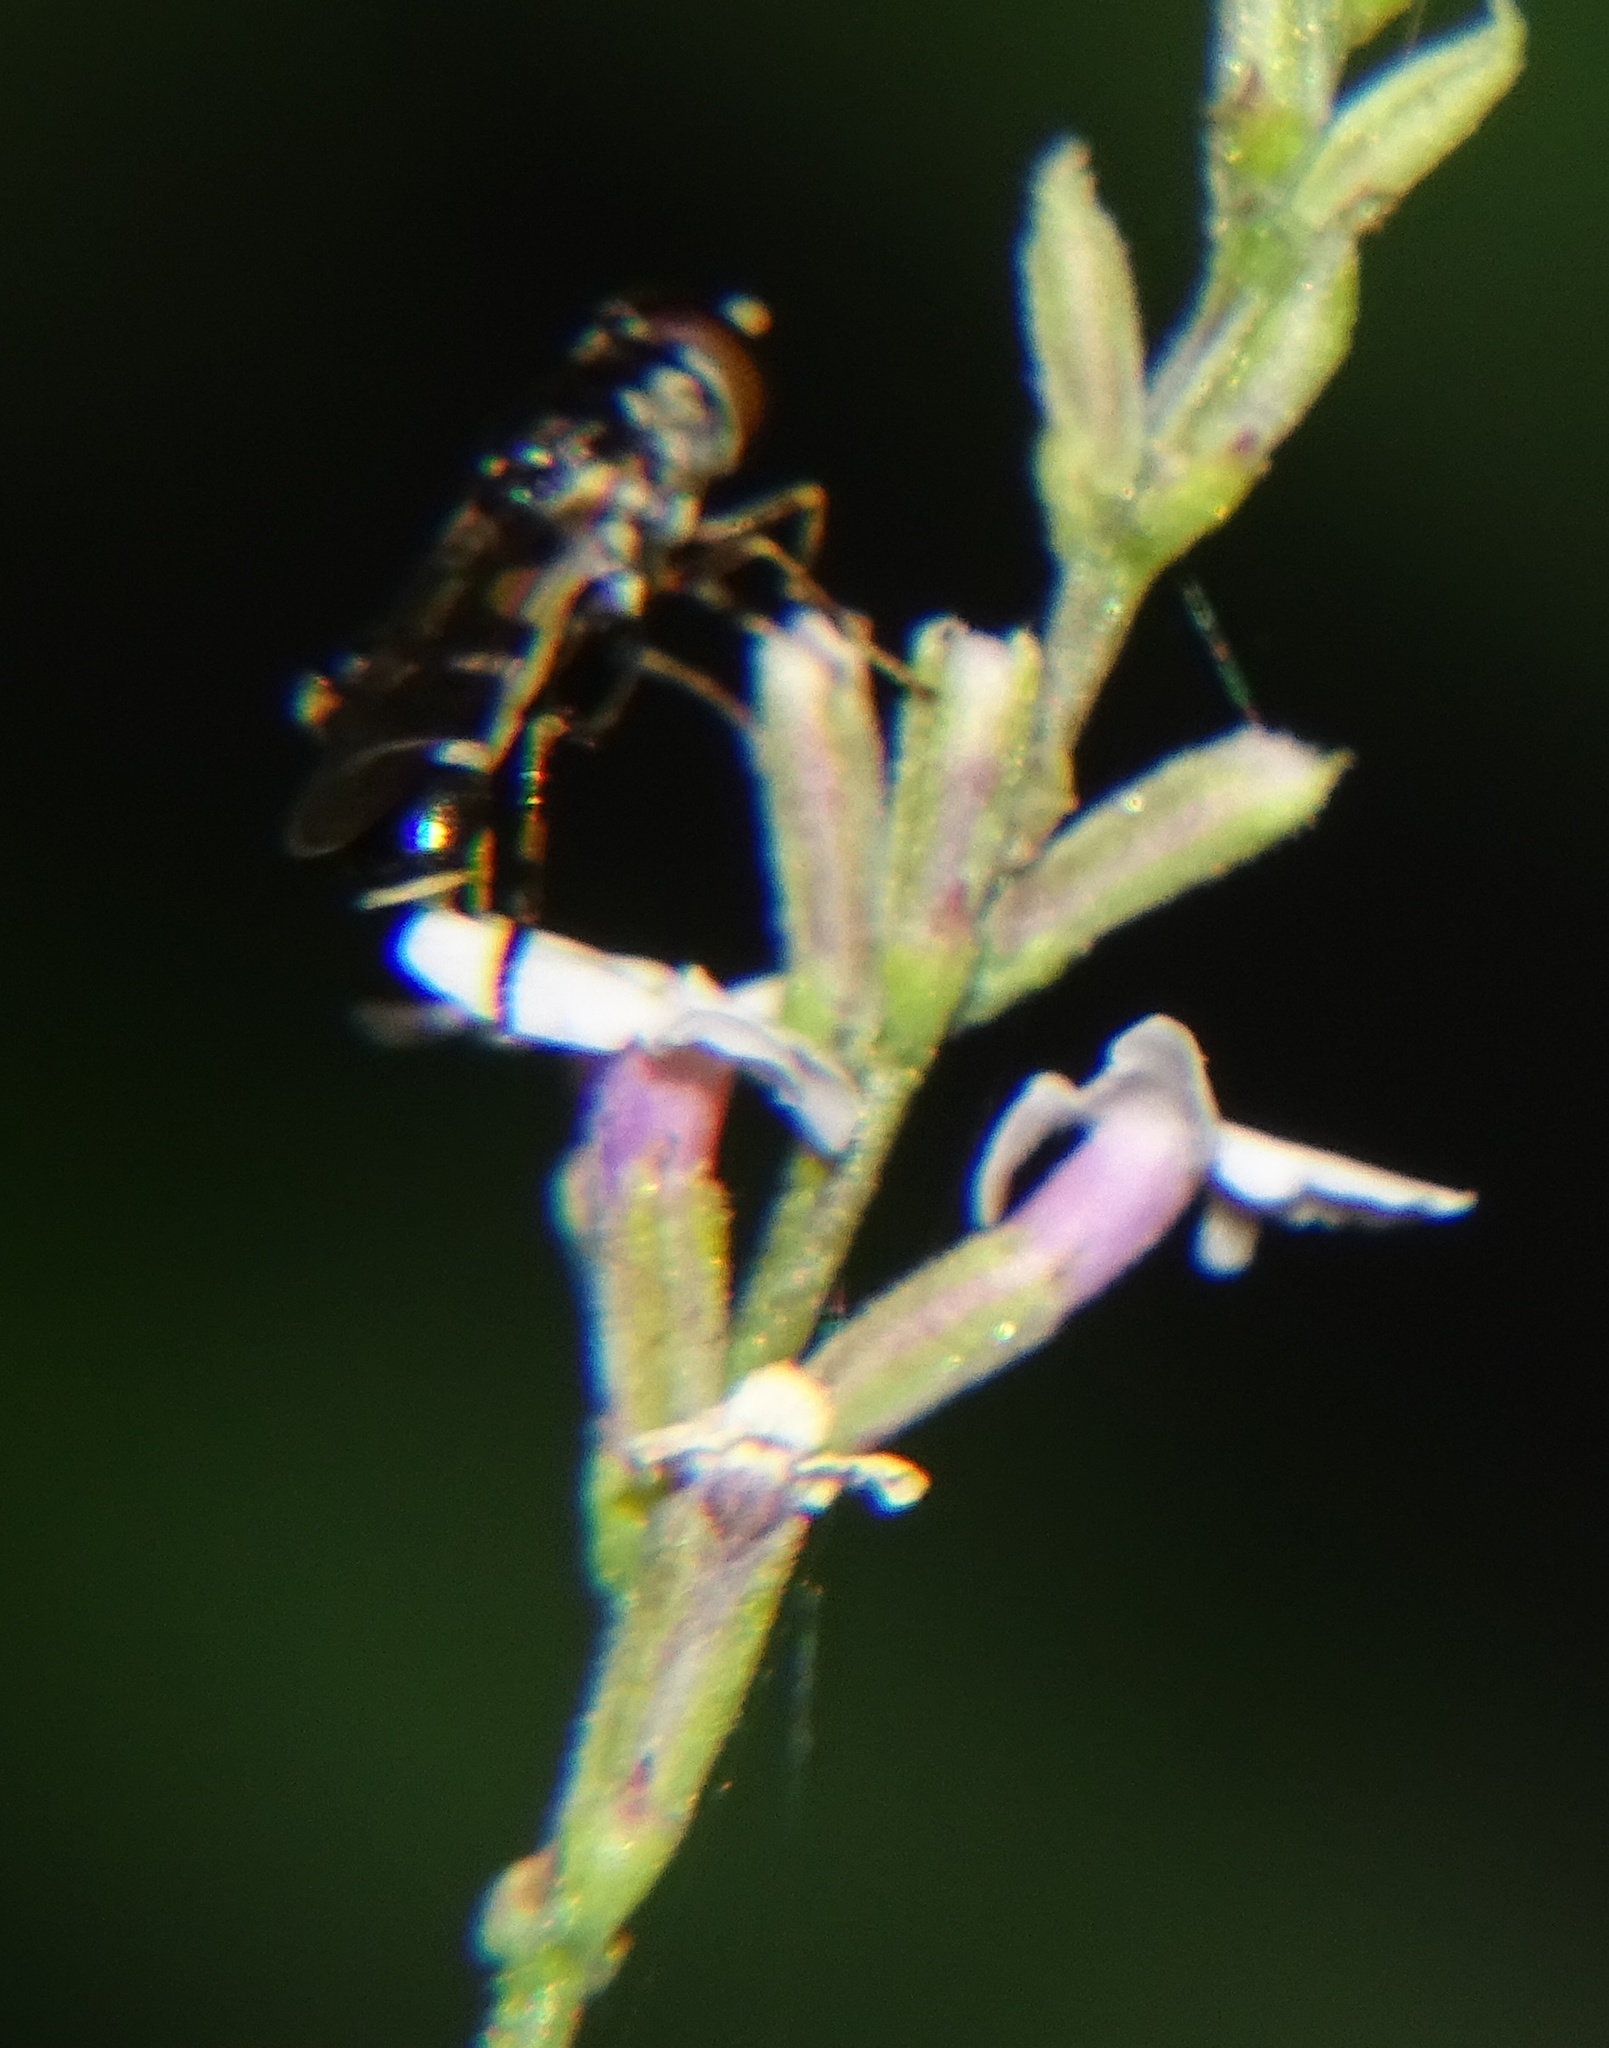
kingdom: Animalia
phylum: Arthropoda
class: Insecta
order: Diptera
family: Syrphidae
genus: Syritta
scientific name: Syritta pipiens
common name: Hover fly
